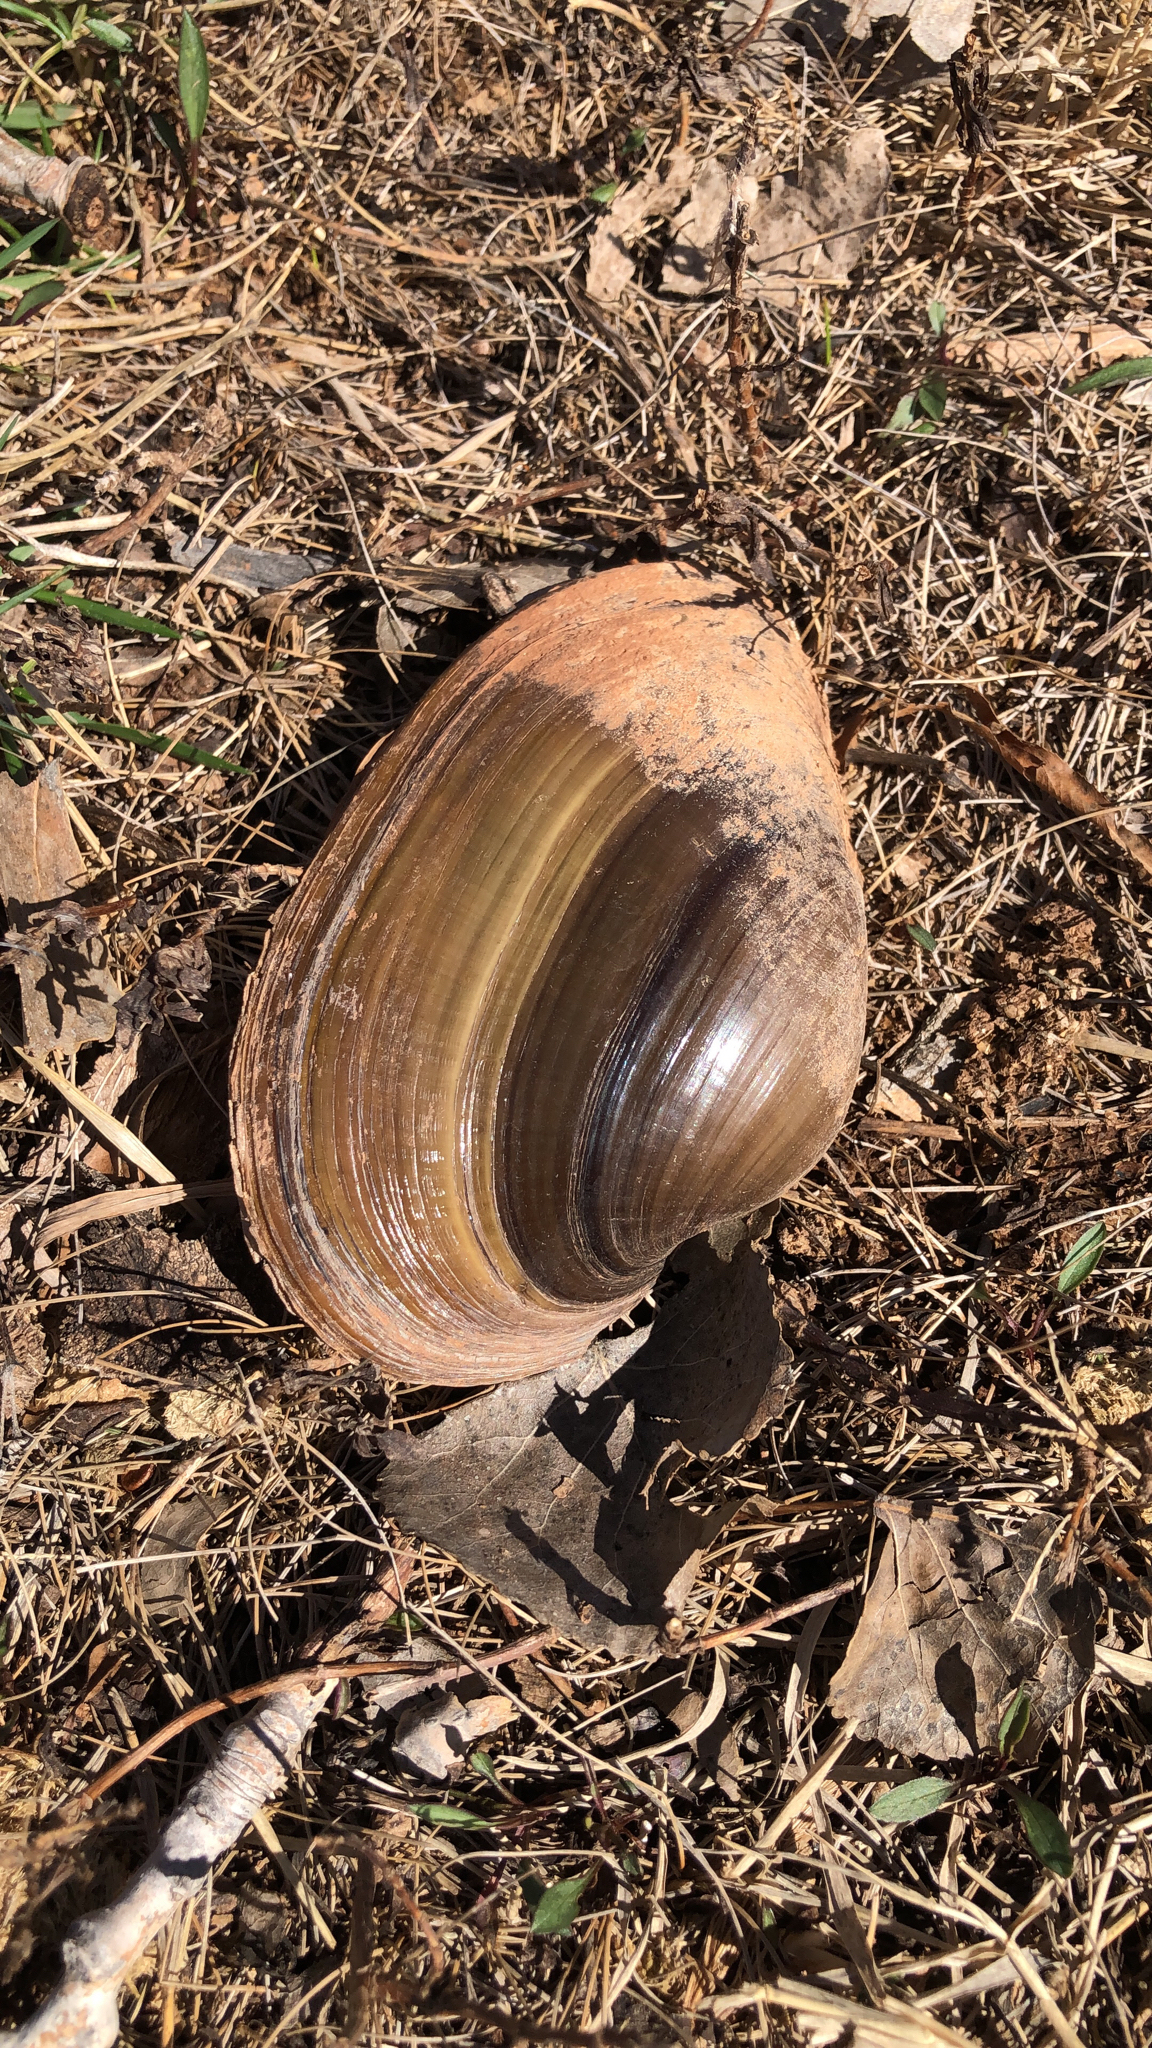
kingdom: Animalia
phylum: Mollusca
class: Bivalvia
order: Unionida
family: Unionidae
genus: Pyganodon
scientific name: Pyganodon grandis
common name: Giant floater
